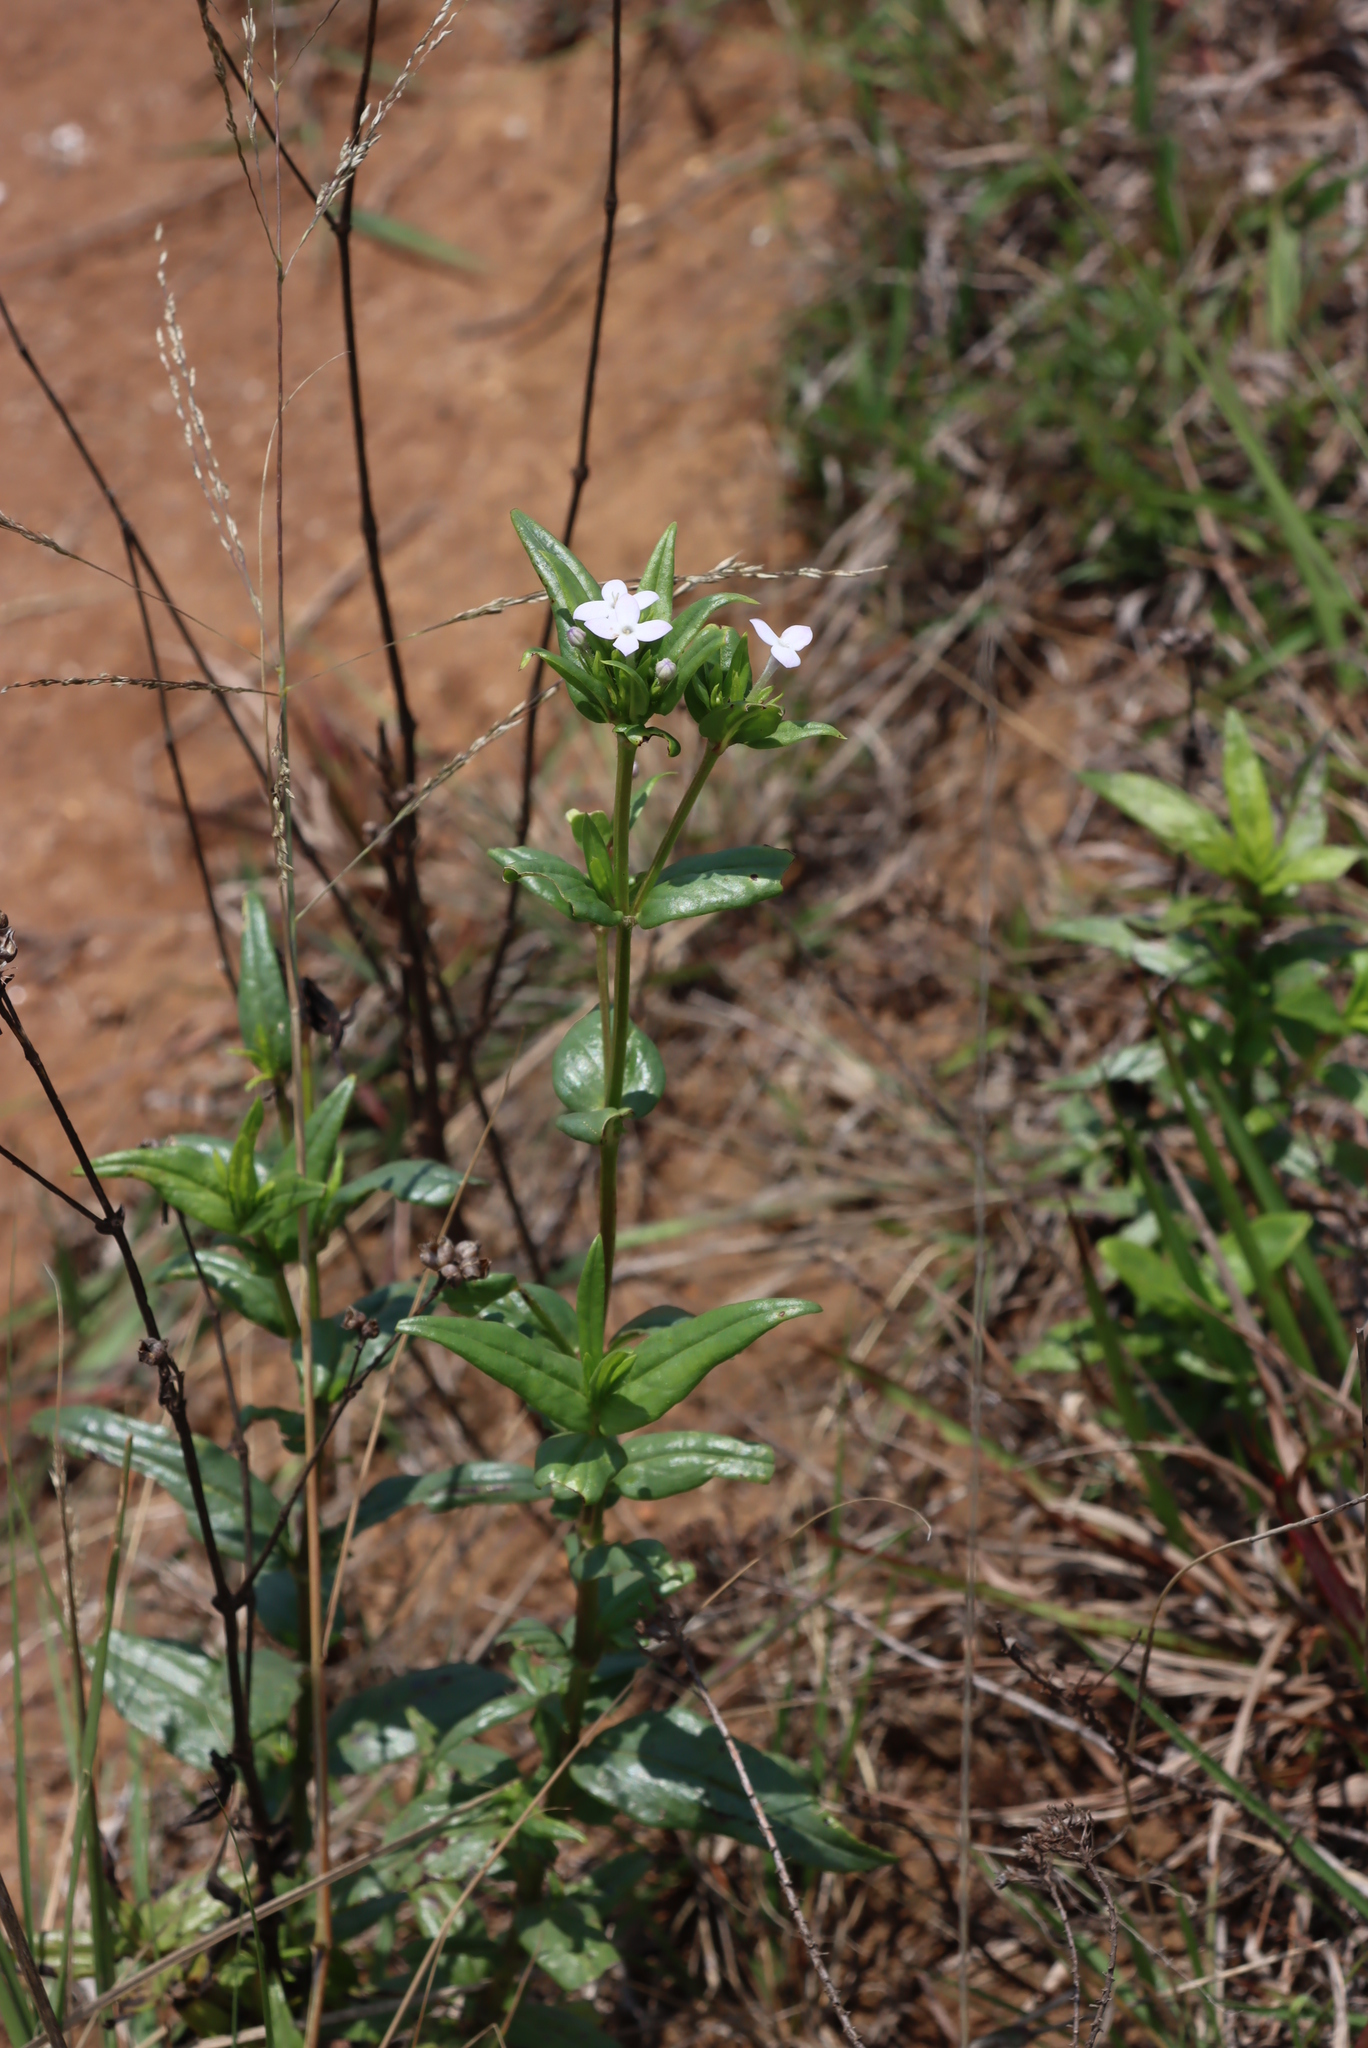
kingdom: Plantae
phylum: Tracheophyta
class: Magnoliopsida
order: Gentianales
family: Rubiaceae
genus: Conostomium
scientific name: Conostomium natalense
